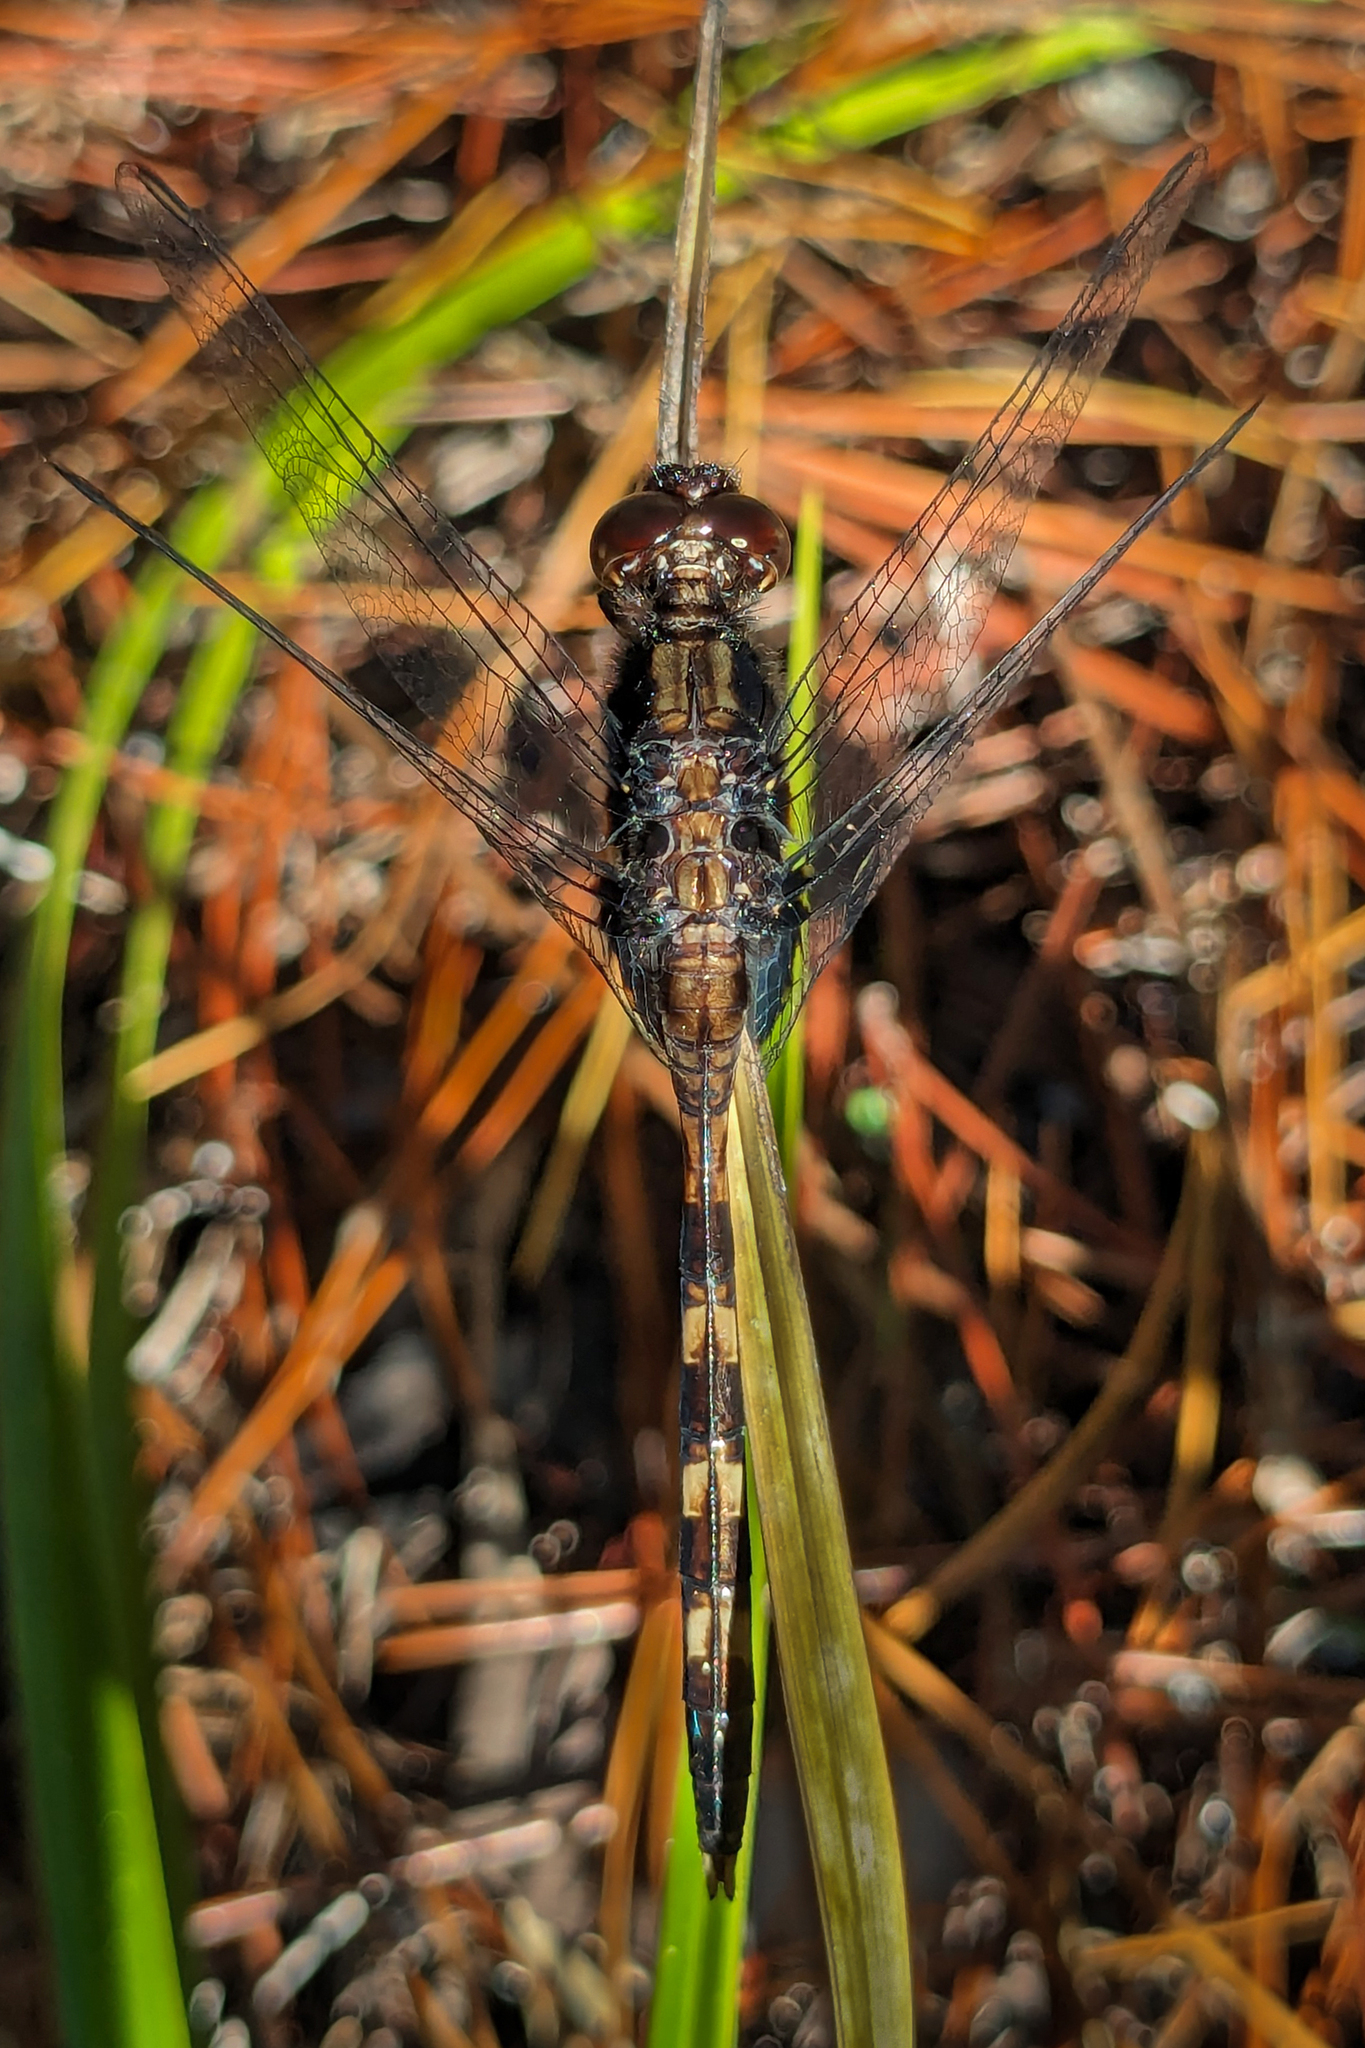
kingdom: Animalia
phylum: Arthropoda
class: Insecta
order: Odonata
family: Libellulidae
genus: Erythemis
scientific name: Erythemis plebeja
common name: Pin-tailed pondhawk
